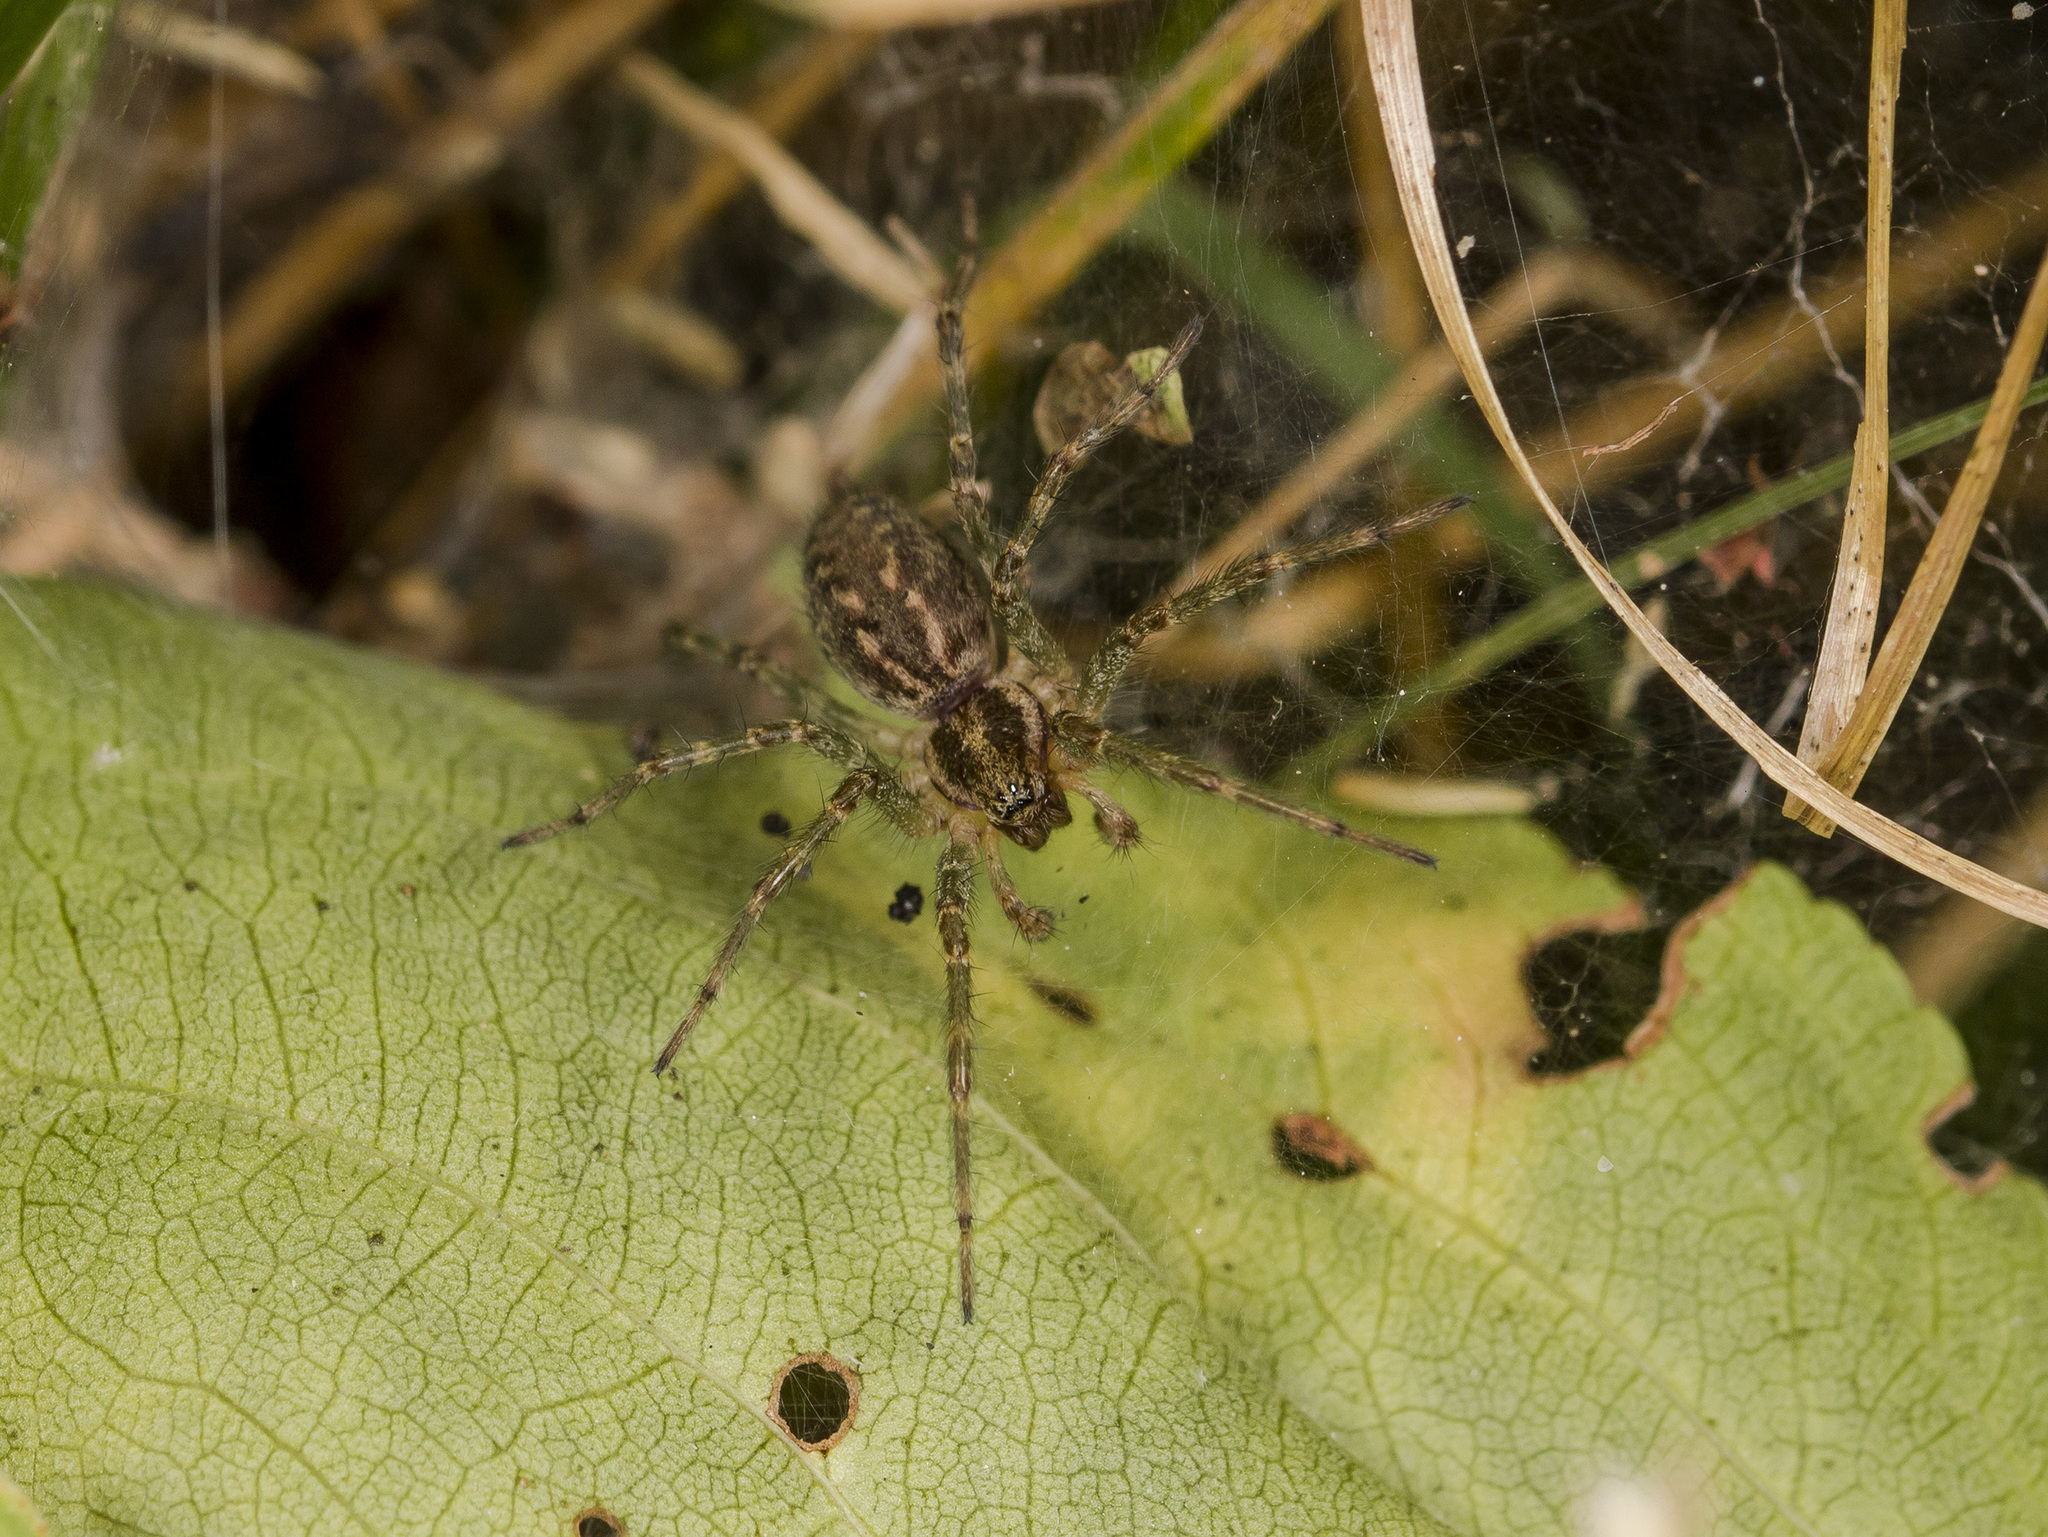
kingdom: Animalia
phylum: Arthropoda
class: Arachnida
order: Araneae
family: Agelenidae
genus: Allagelena
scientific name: Allagelena gracilens
